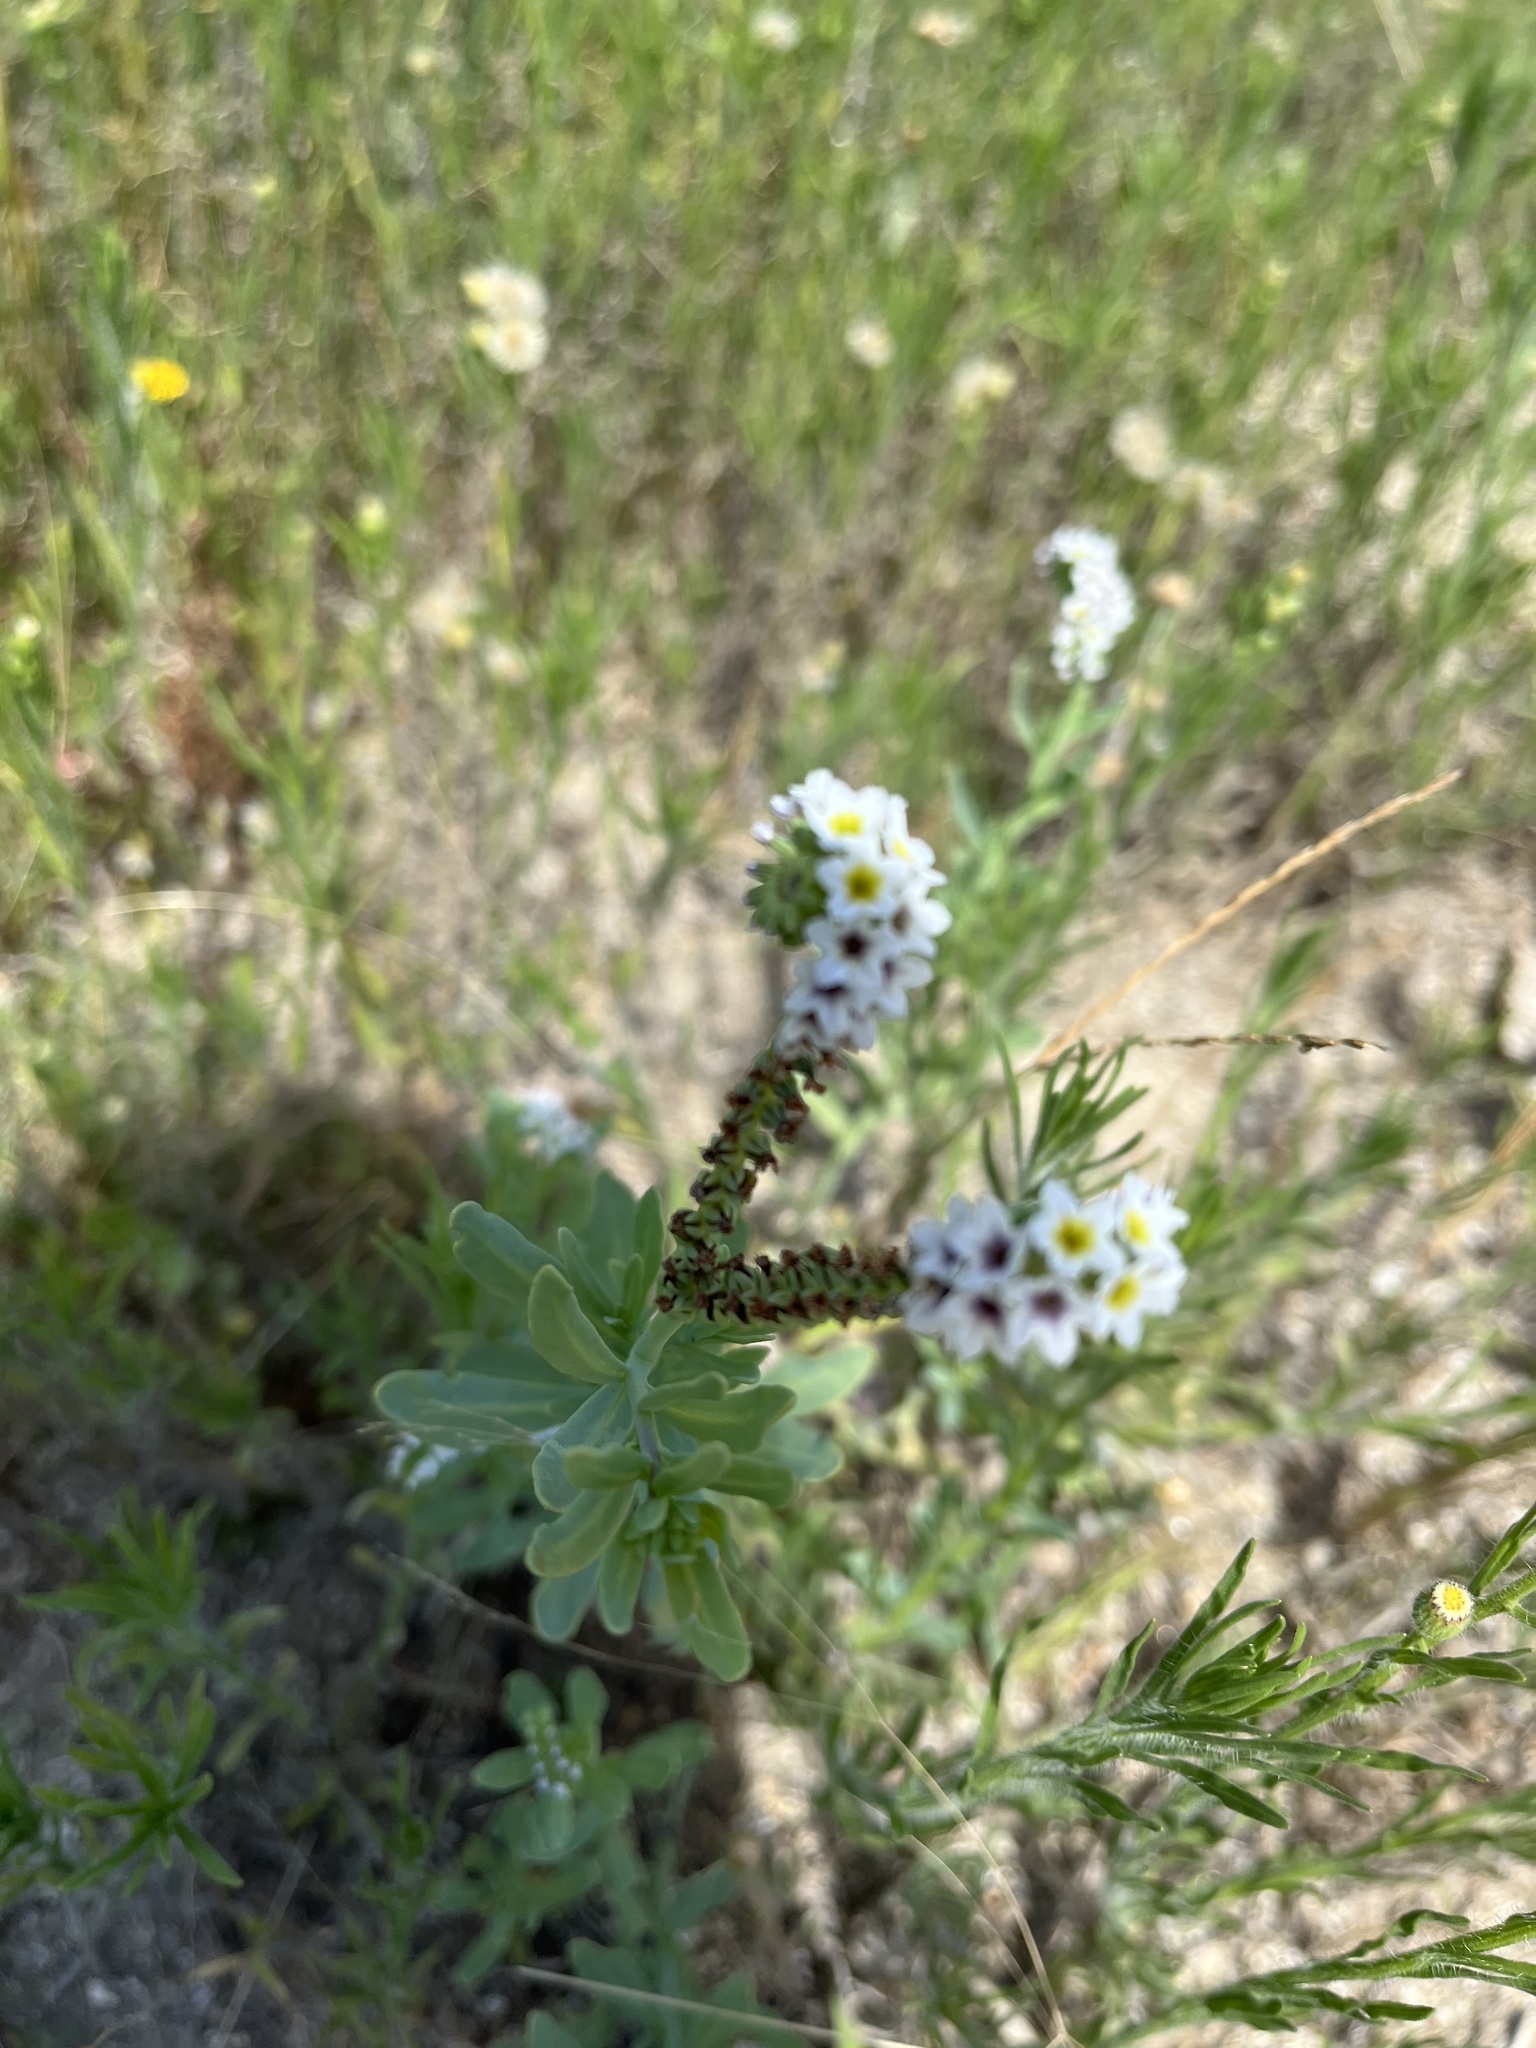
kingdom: Plantae
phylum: Tracheophyta
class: Magnoliopsida
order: Boraginales
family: Heliotropiaceae
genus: Heliotropium
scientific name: Heliotropium curassavicum
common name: Seaside heliotrope
